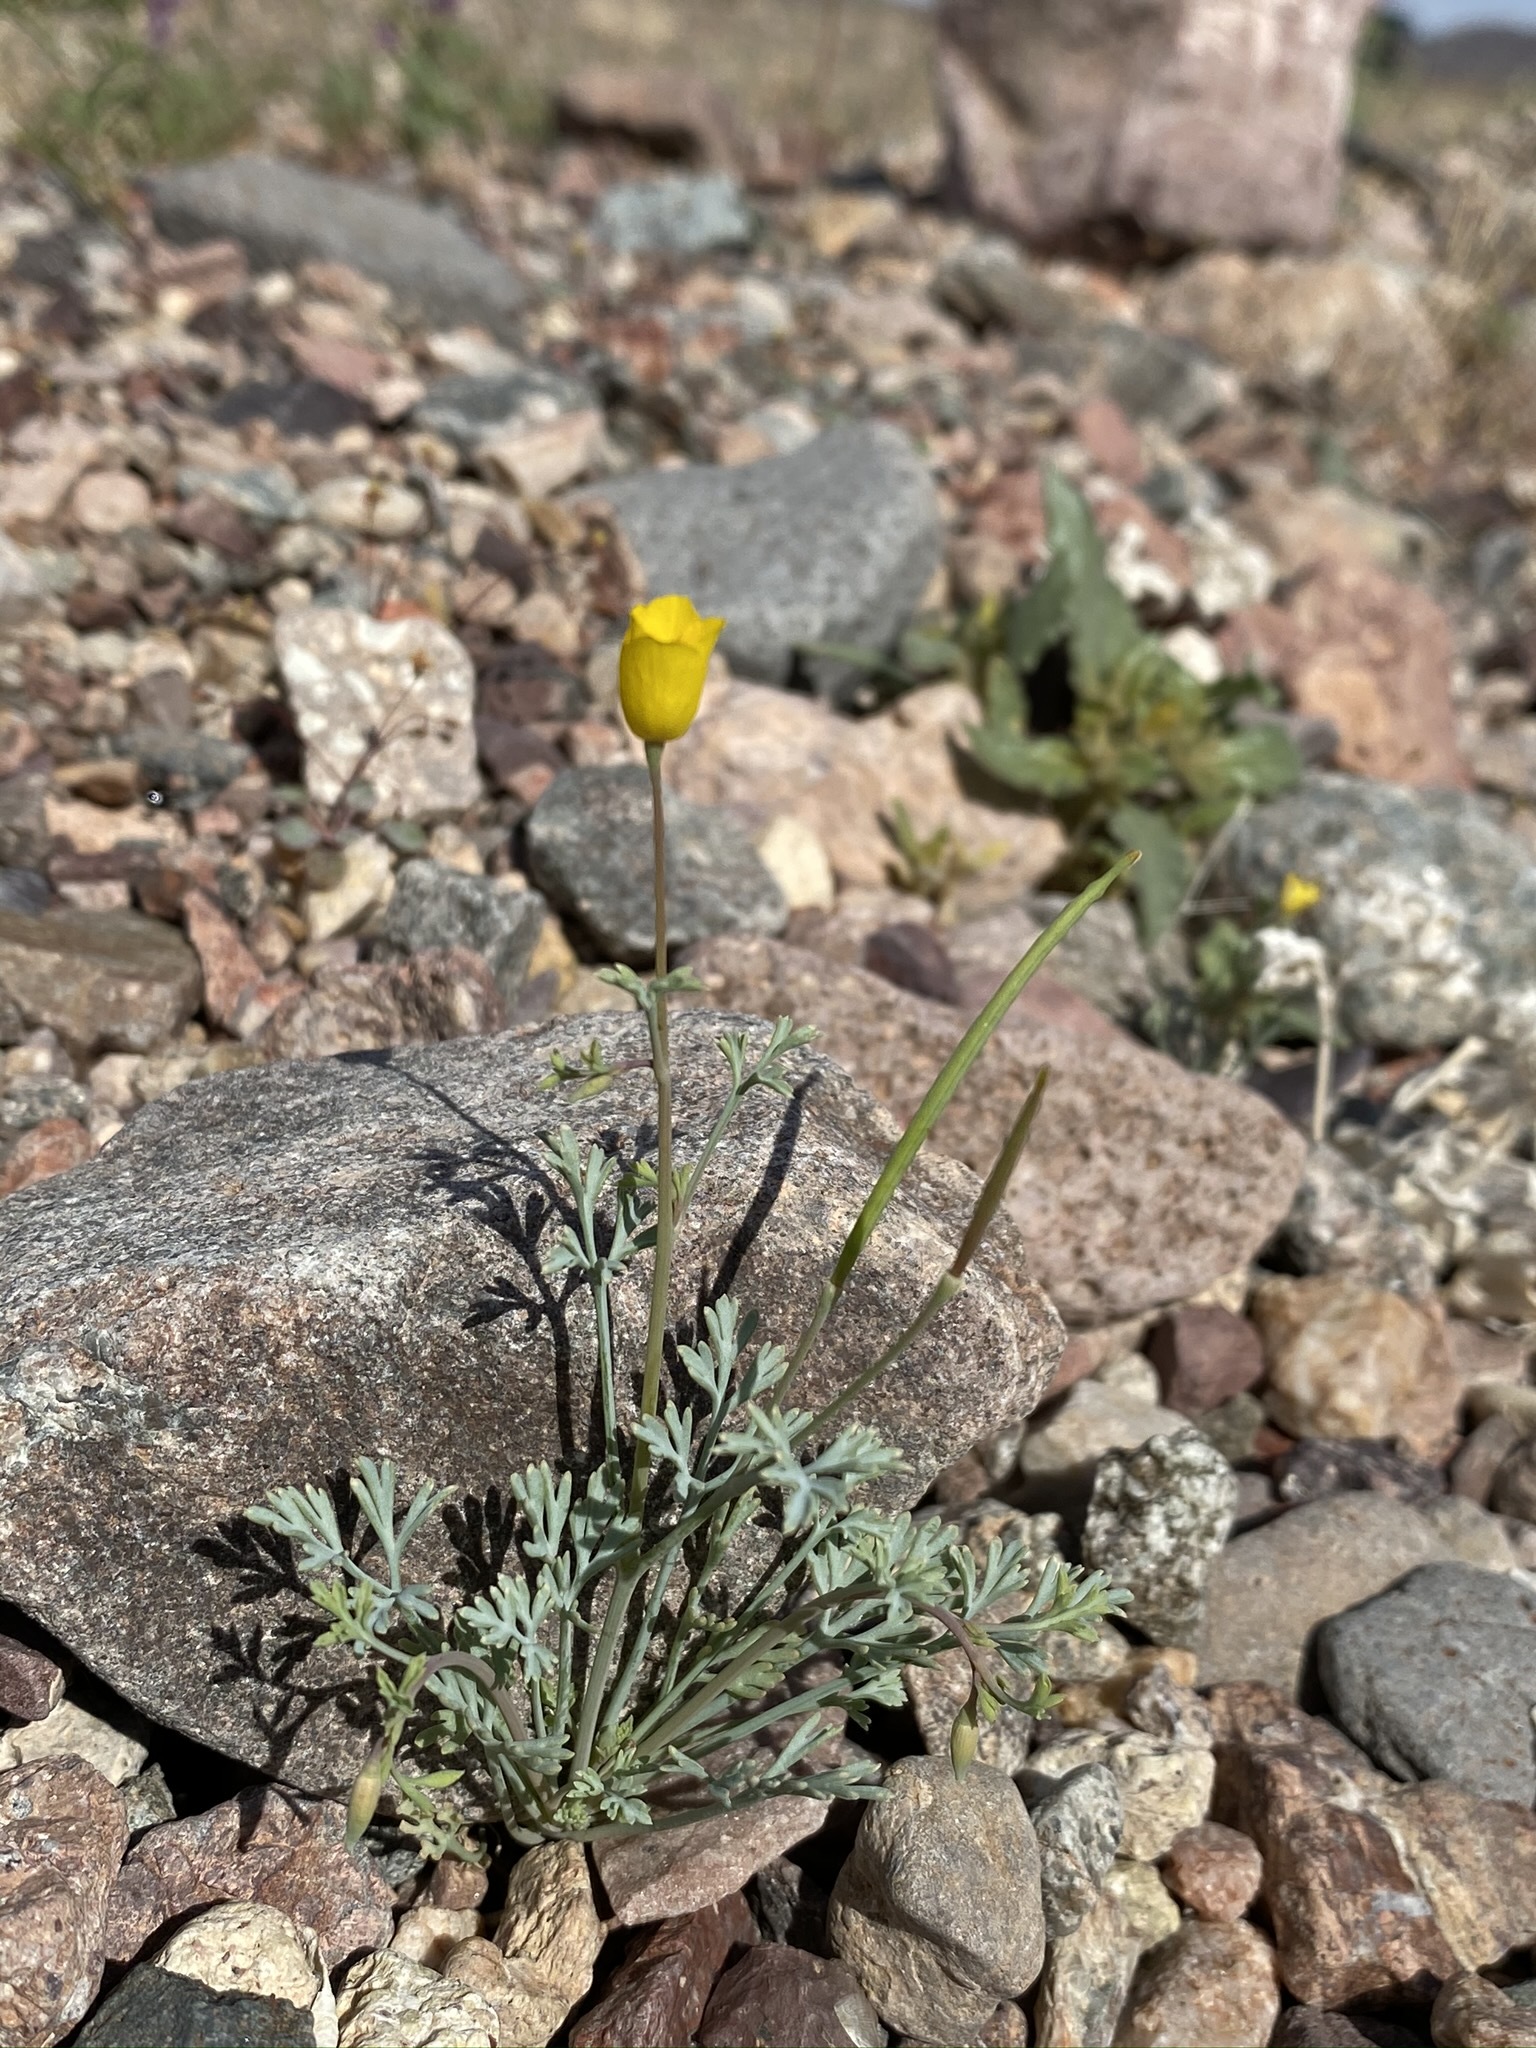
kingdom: Plantae
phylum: Tracheophyta
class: Magnoliopsida
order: Ranunculales
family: Papaveraceae
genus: Eschscholzia
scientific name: Eschscholzia minutiflora
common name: Small-flower california-poppy
